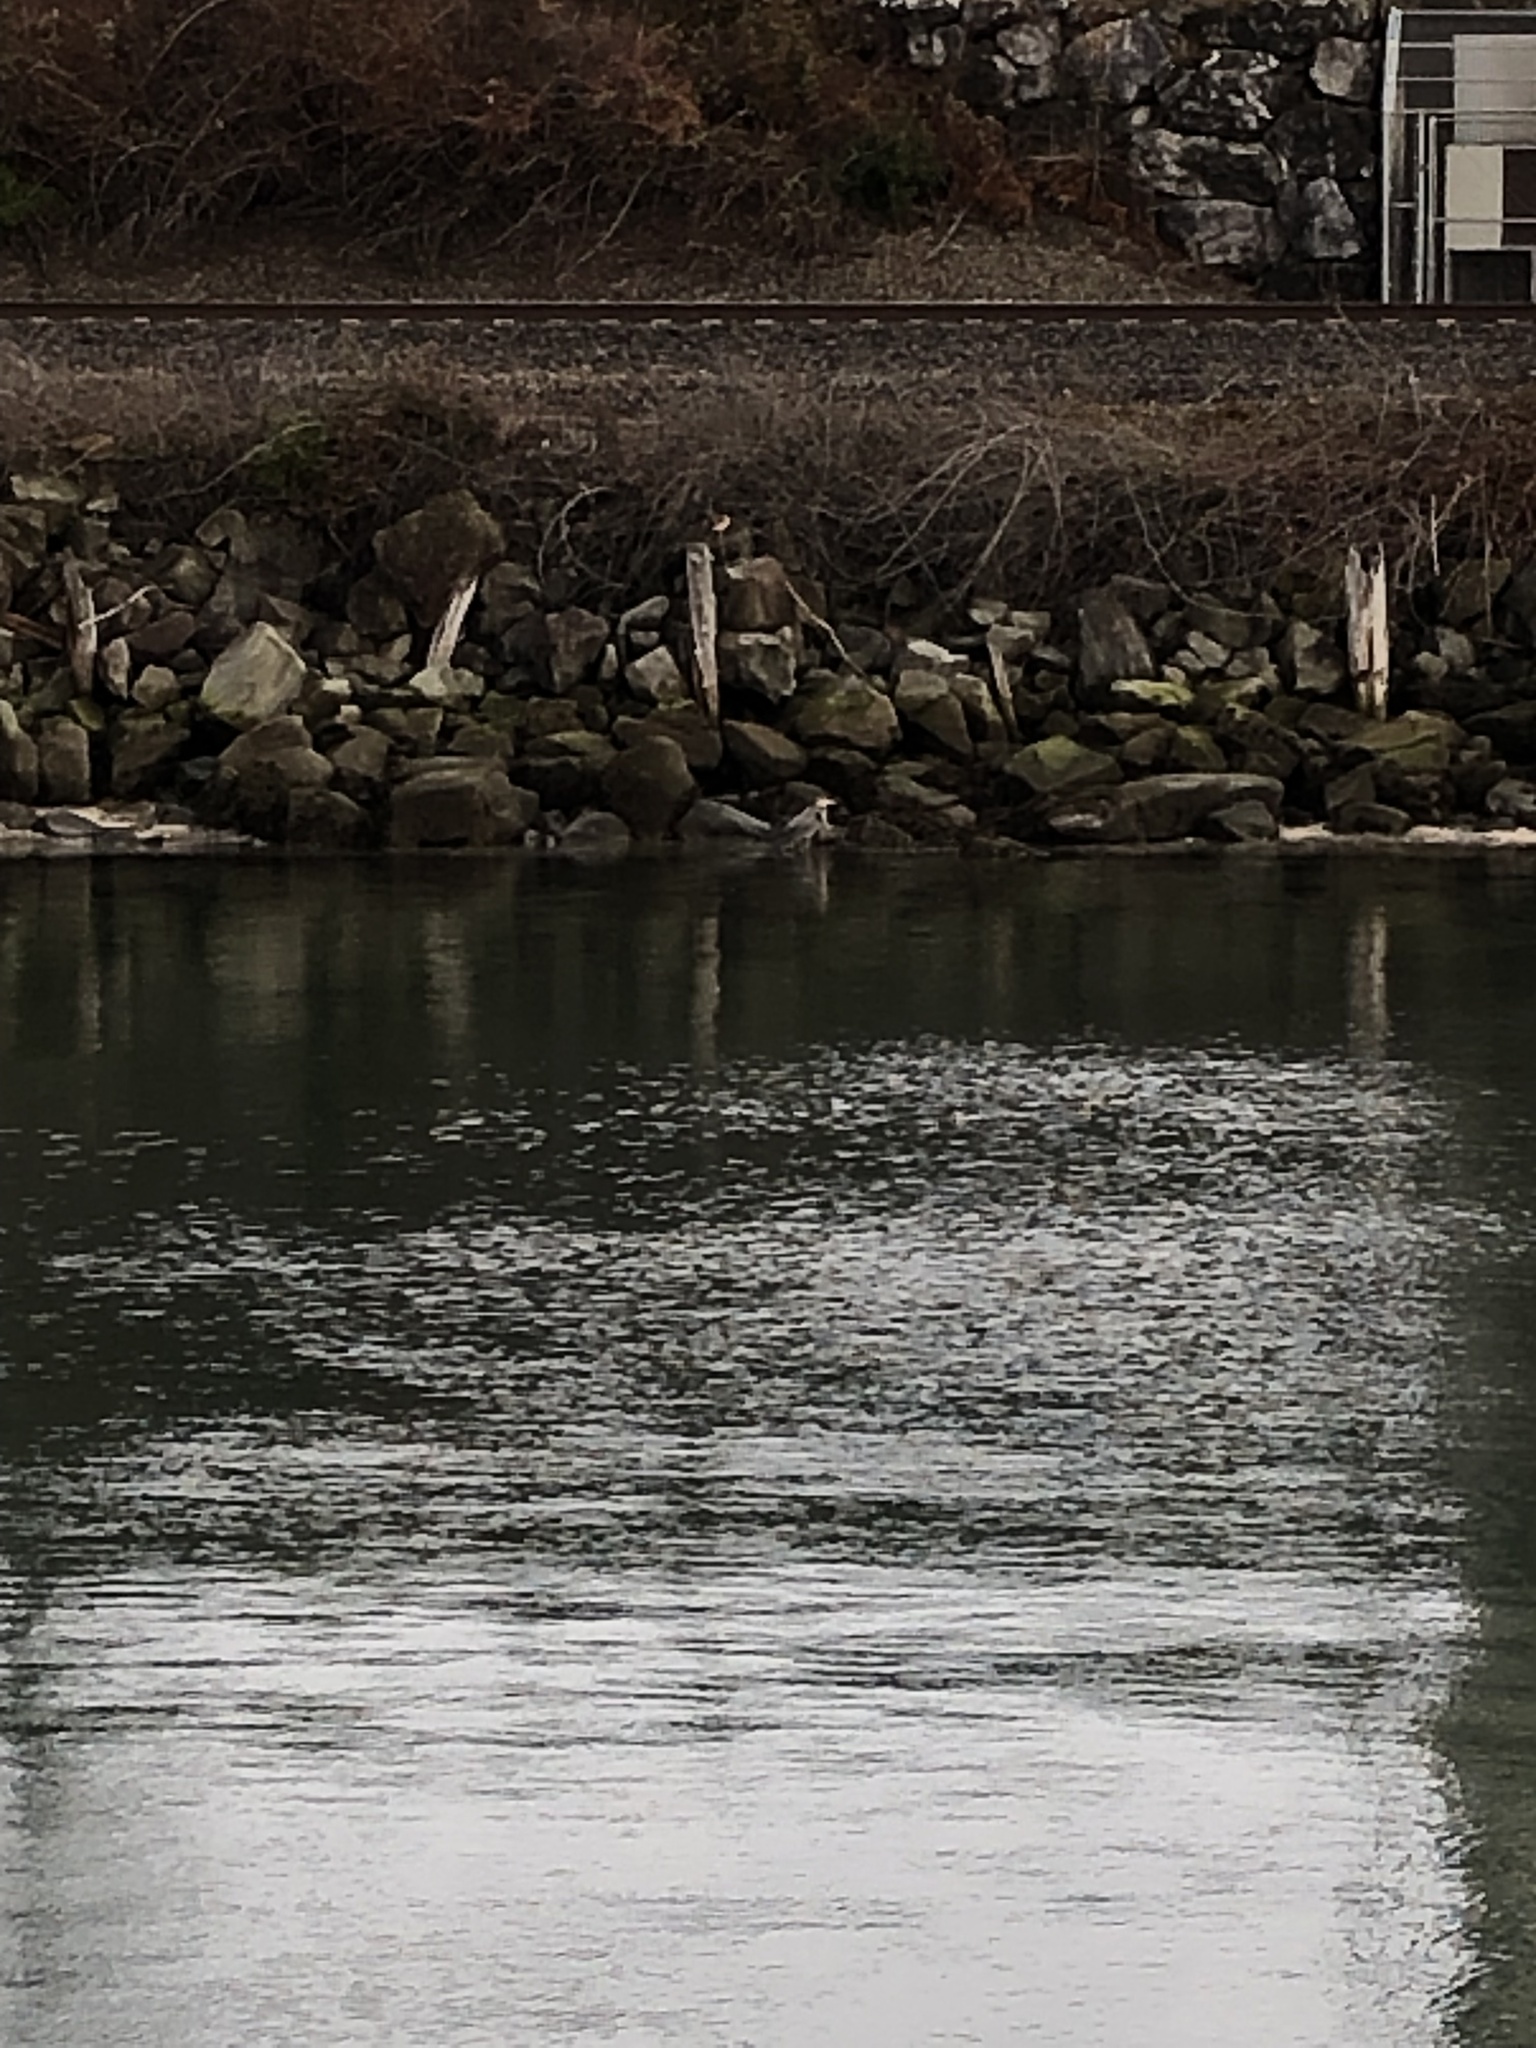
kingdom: Animalia
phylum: Chordata
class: Aves
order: Pelecaniformes
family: Ardeidae
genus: Ardea
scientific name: Ardea herodias
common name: Great blue heron
